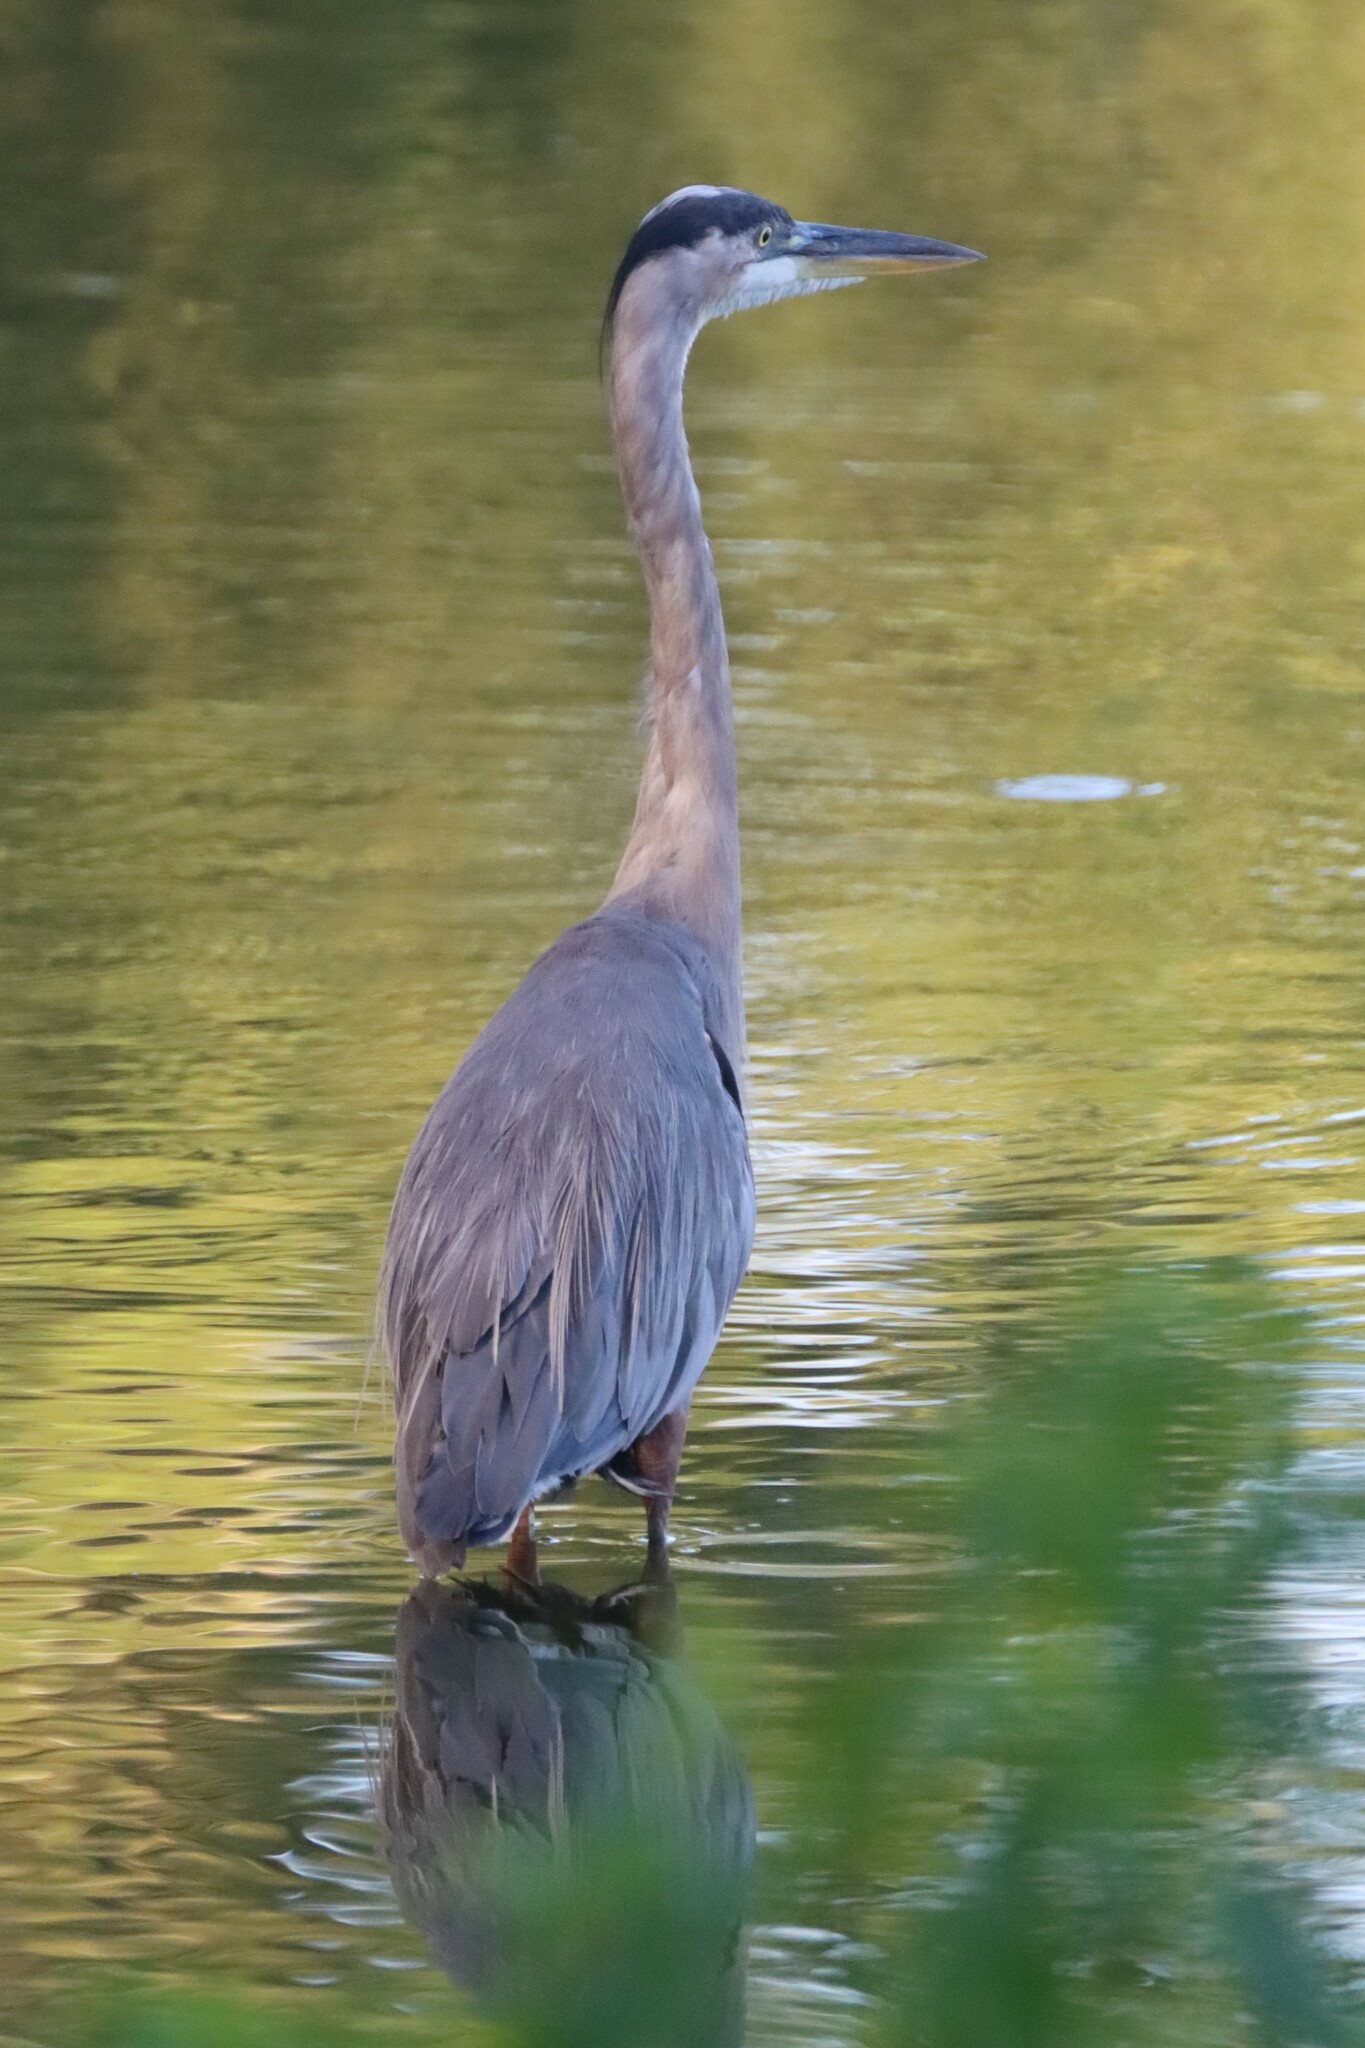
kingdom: Animalia
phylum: Chordata
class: Aves
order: Pelecaniformes
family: Ardeidae
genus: Ardea
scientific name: Ardea herodias
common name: Great blue heron
